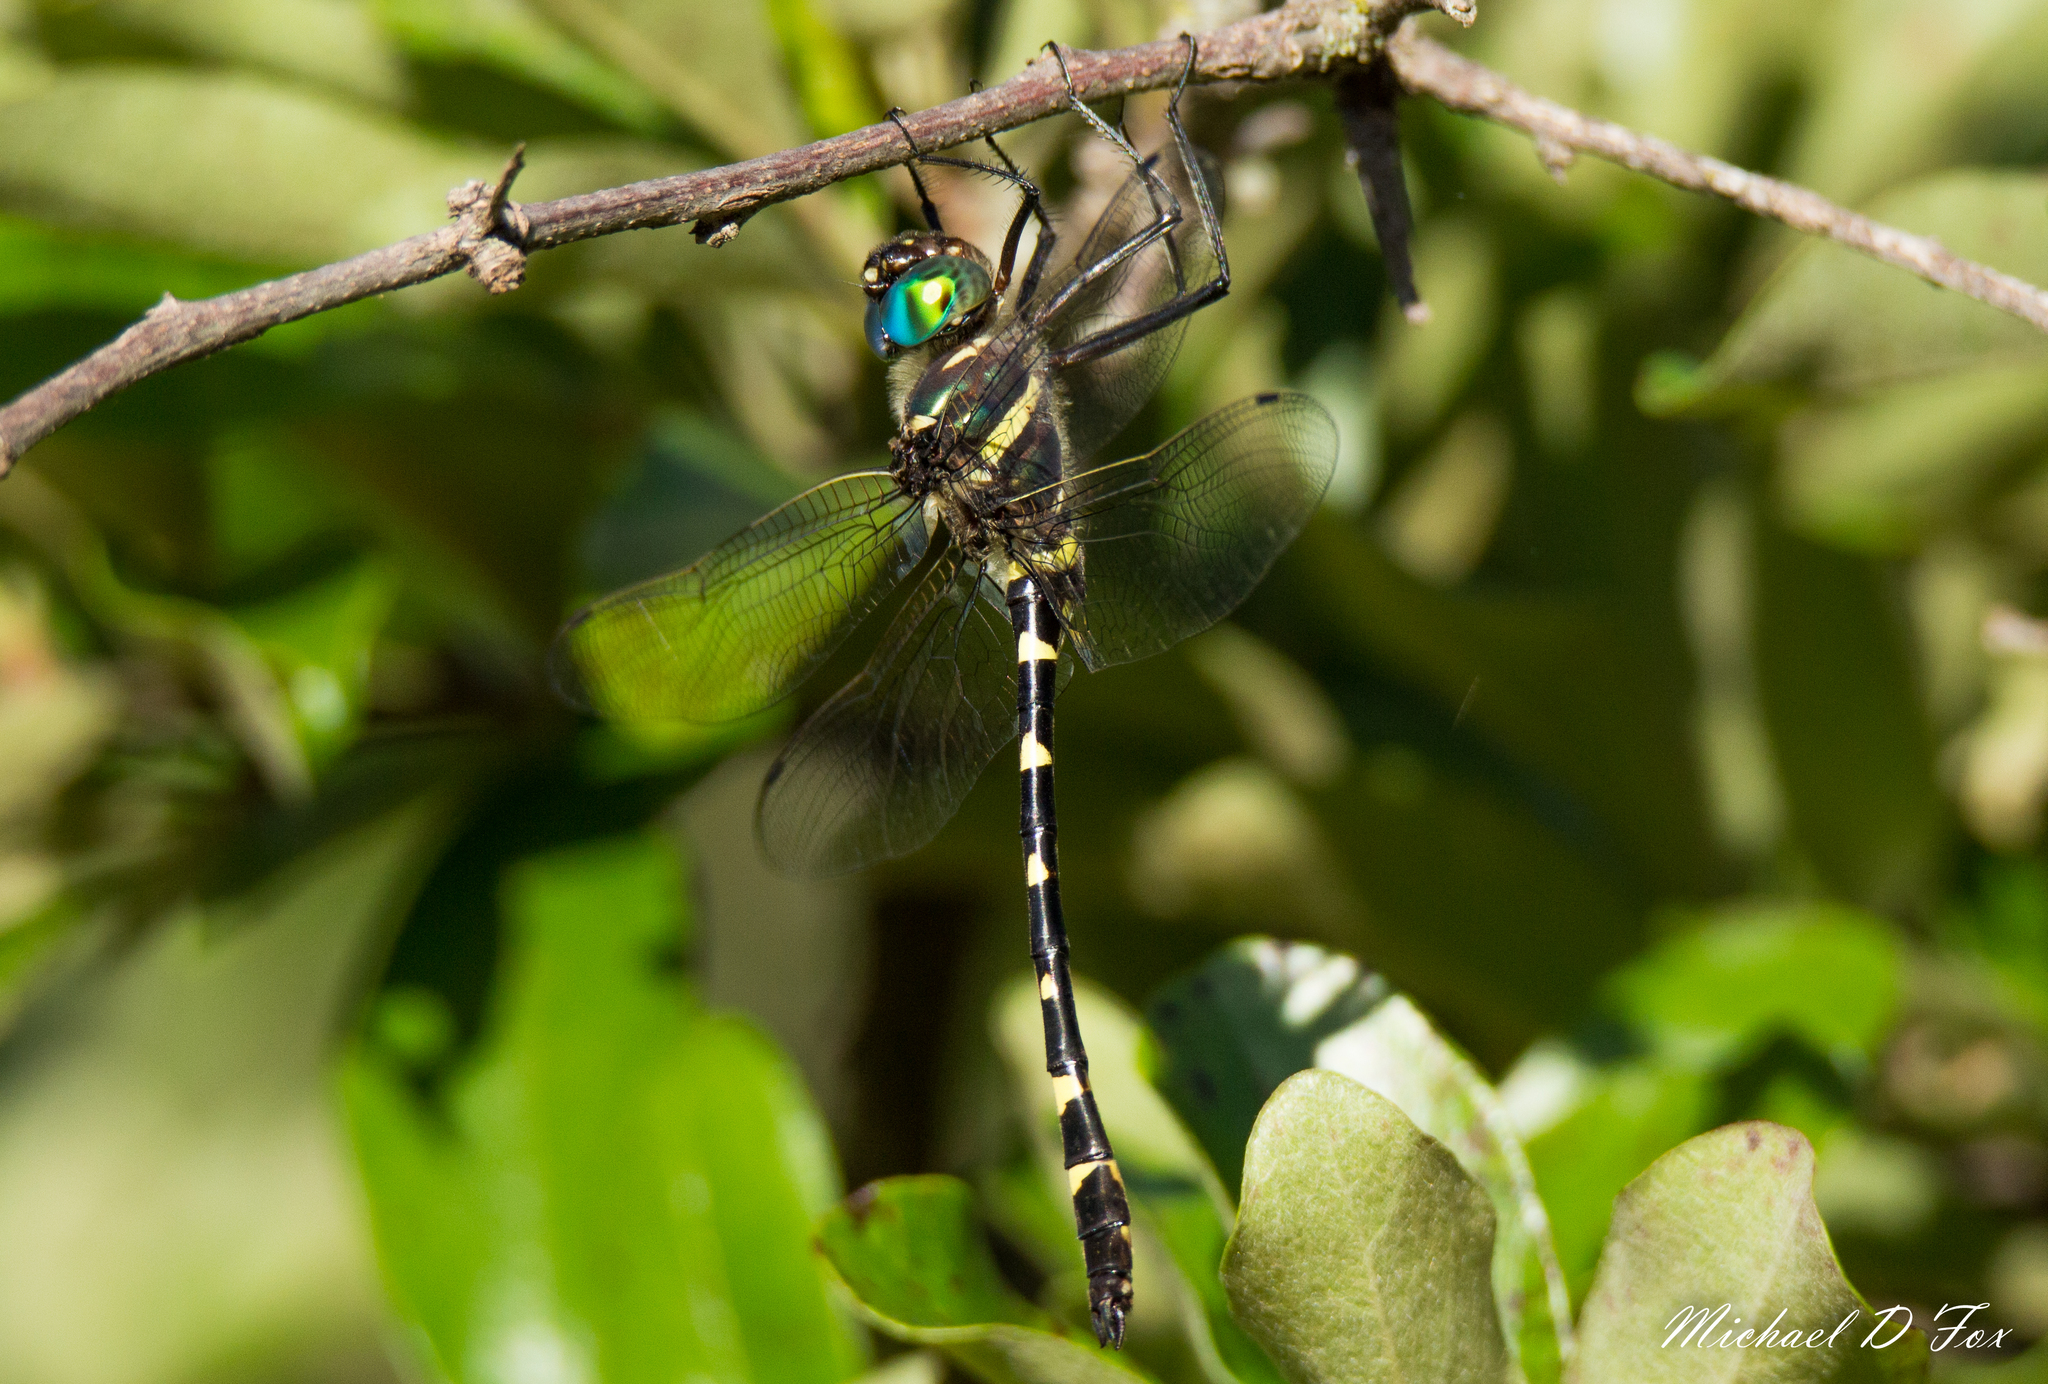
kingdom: Animalia
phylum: Arthropoda
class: Insecta
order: Odonata
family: Macromiidae
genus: Macromia
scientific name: Macromia illinoiensis
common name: Swift river cruiser
